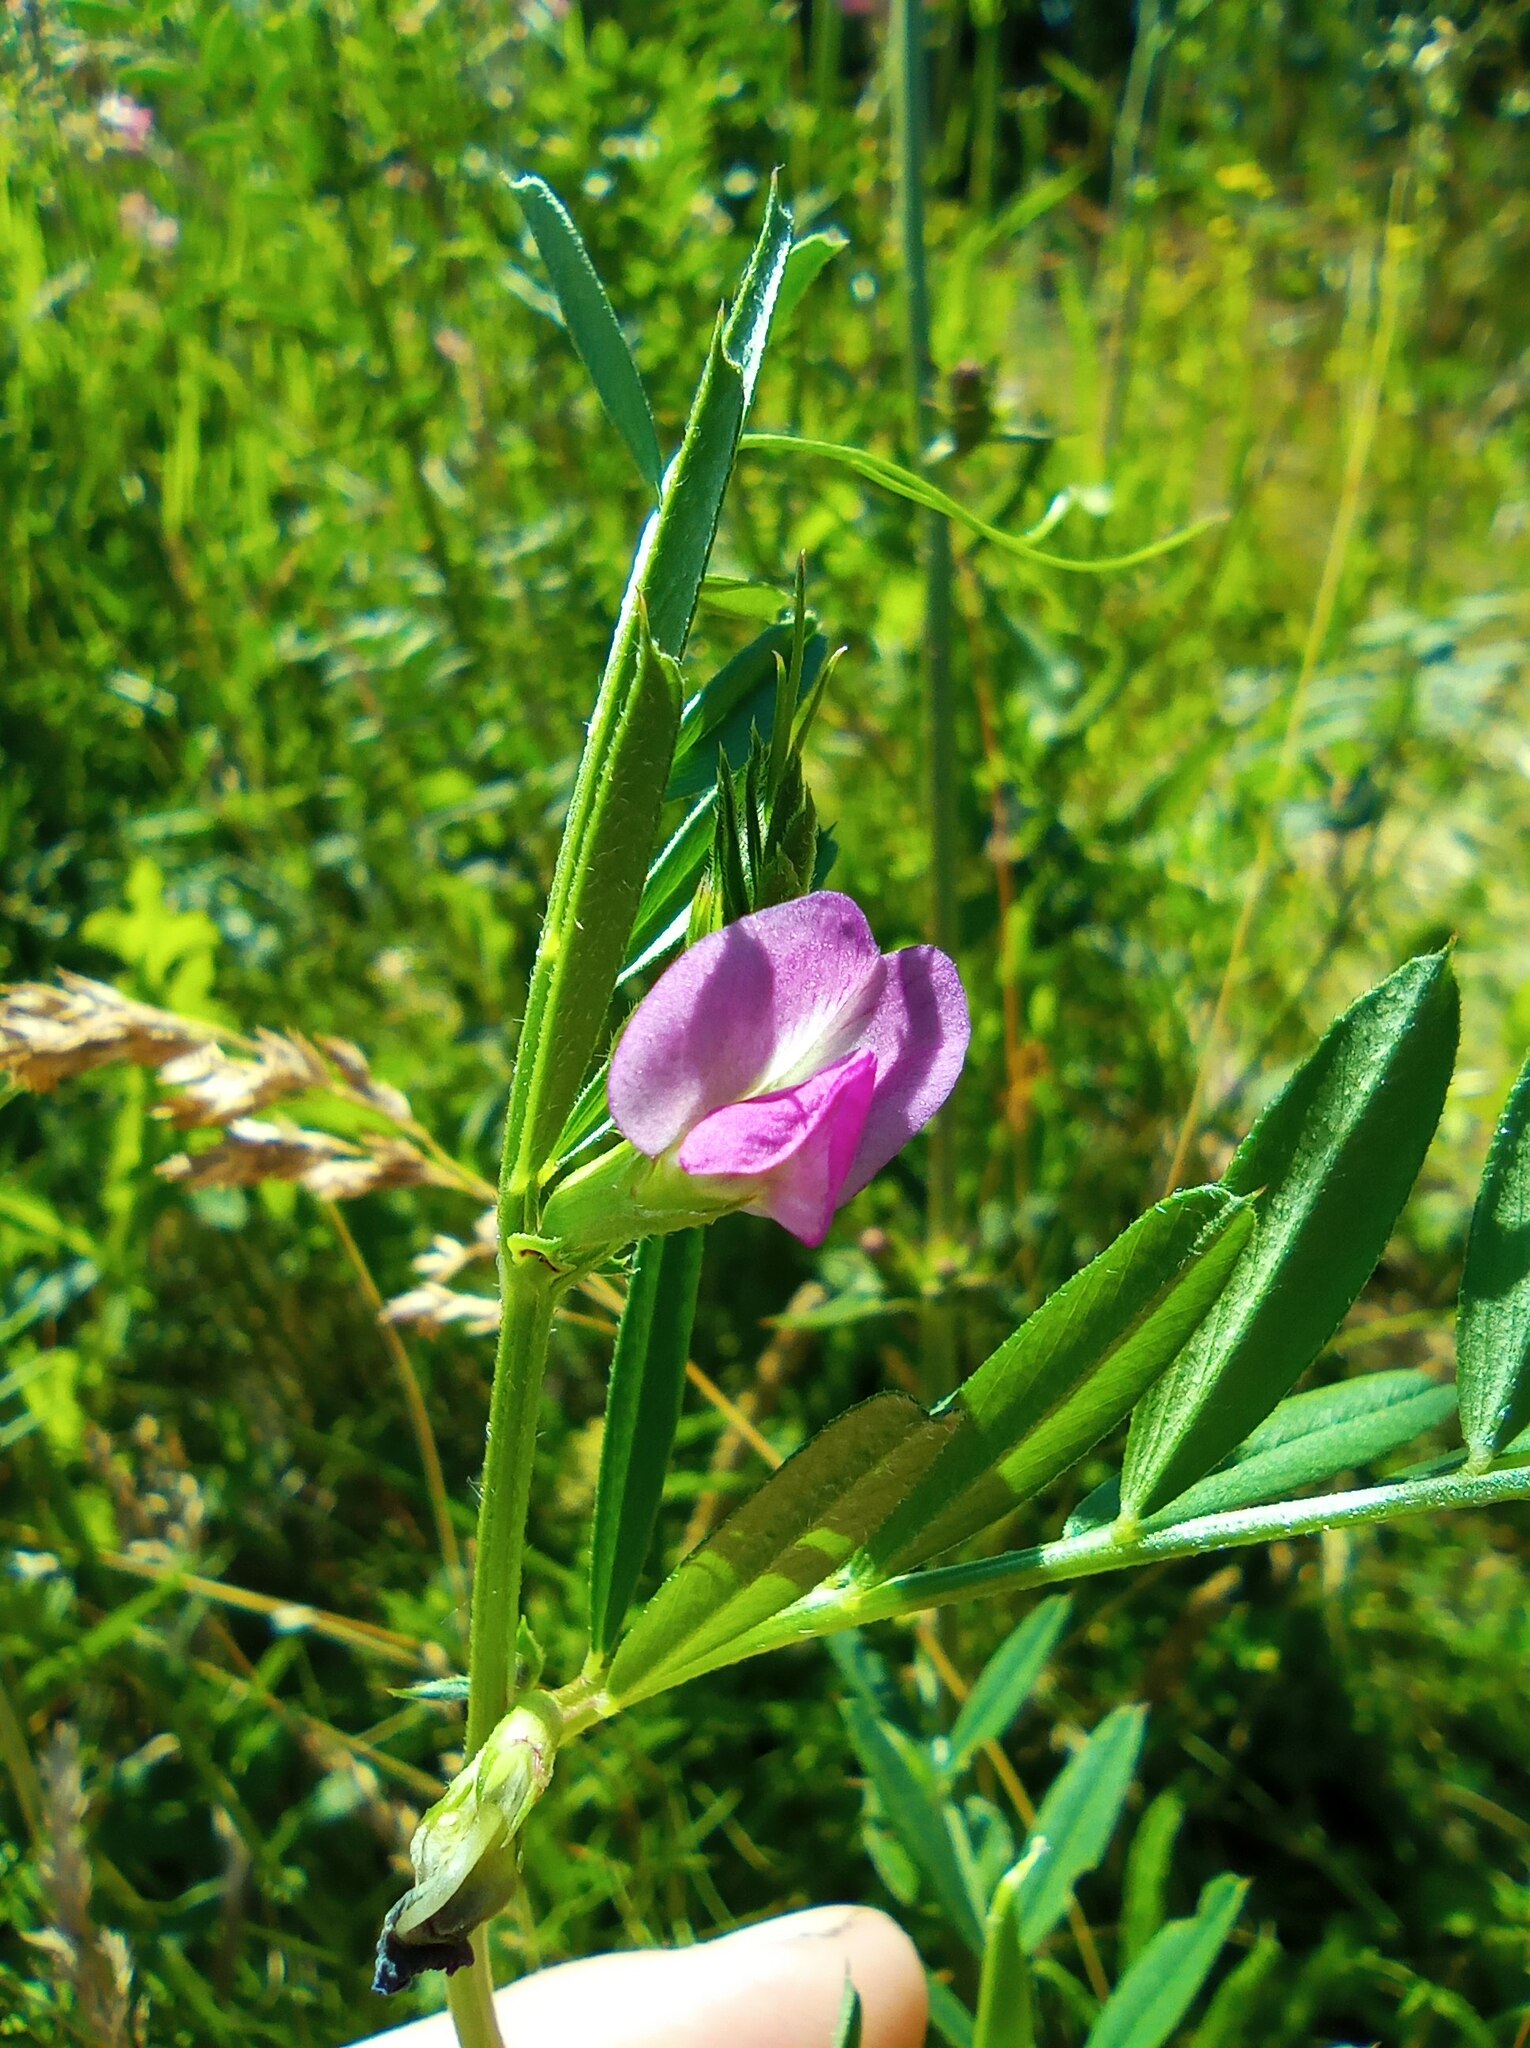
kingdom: Plantae
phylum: Tracheophyta
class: Magnoliopsida
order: Fabales
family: Fabaceae
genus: Vicia
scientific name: Vicia sativa
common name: Garden vetch
